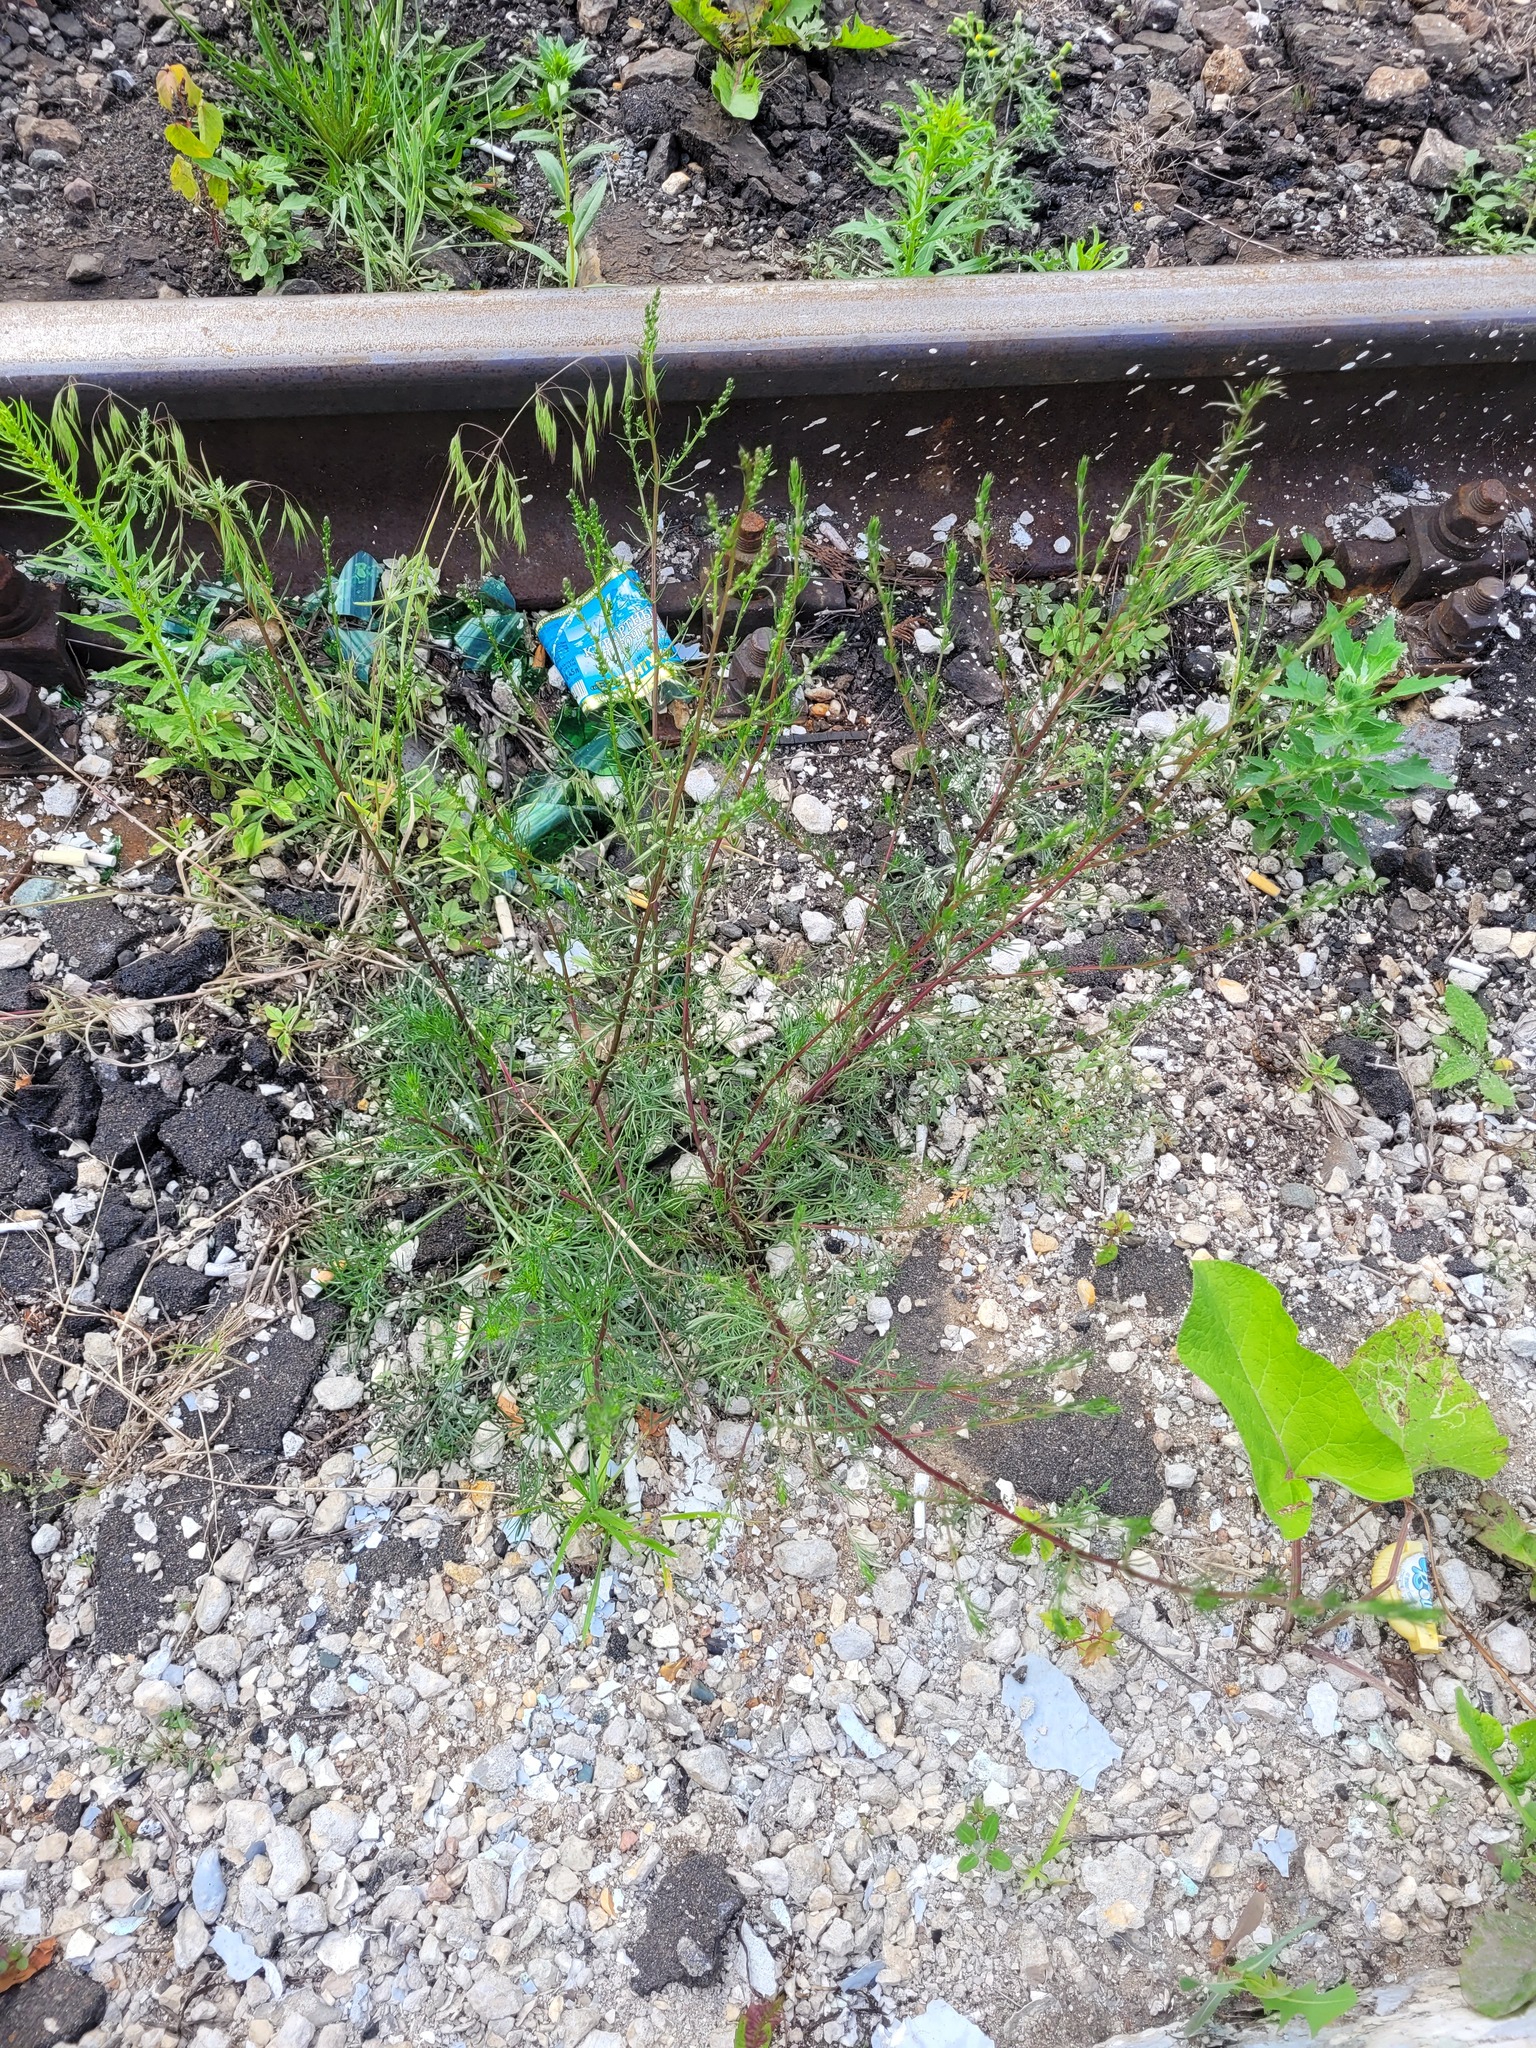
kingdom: Plantae
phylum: Tracheophyta
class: Magnoliopsida
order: Asterales
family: Asteraceae
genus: Artemisia
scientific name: Artemisia campestris
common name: Field wormwood
